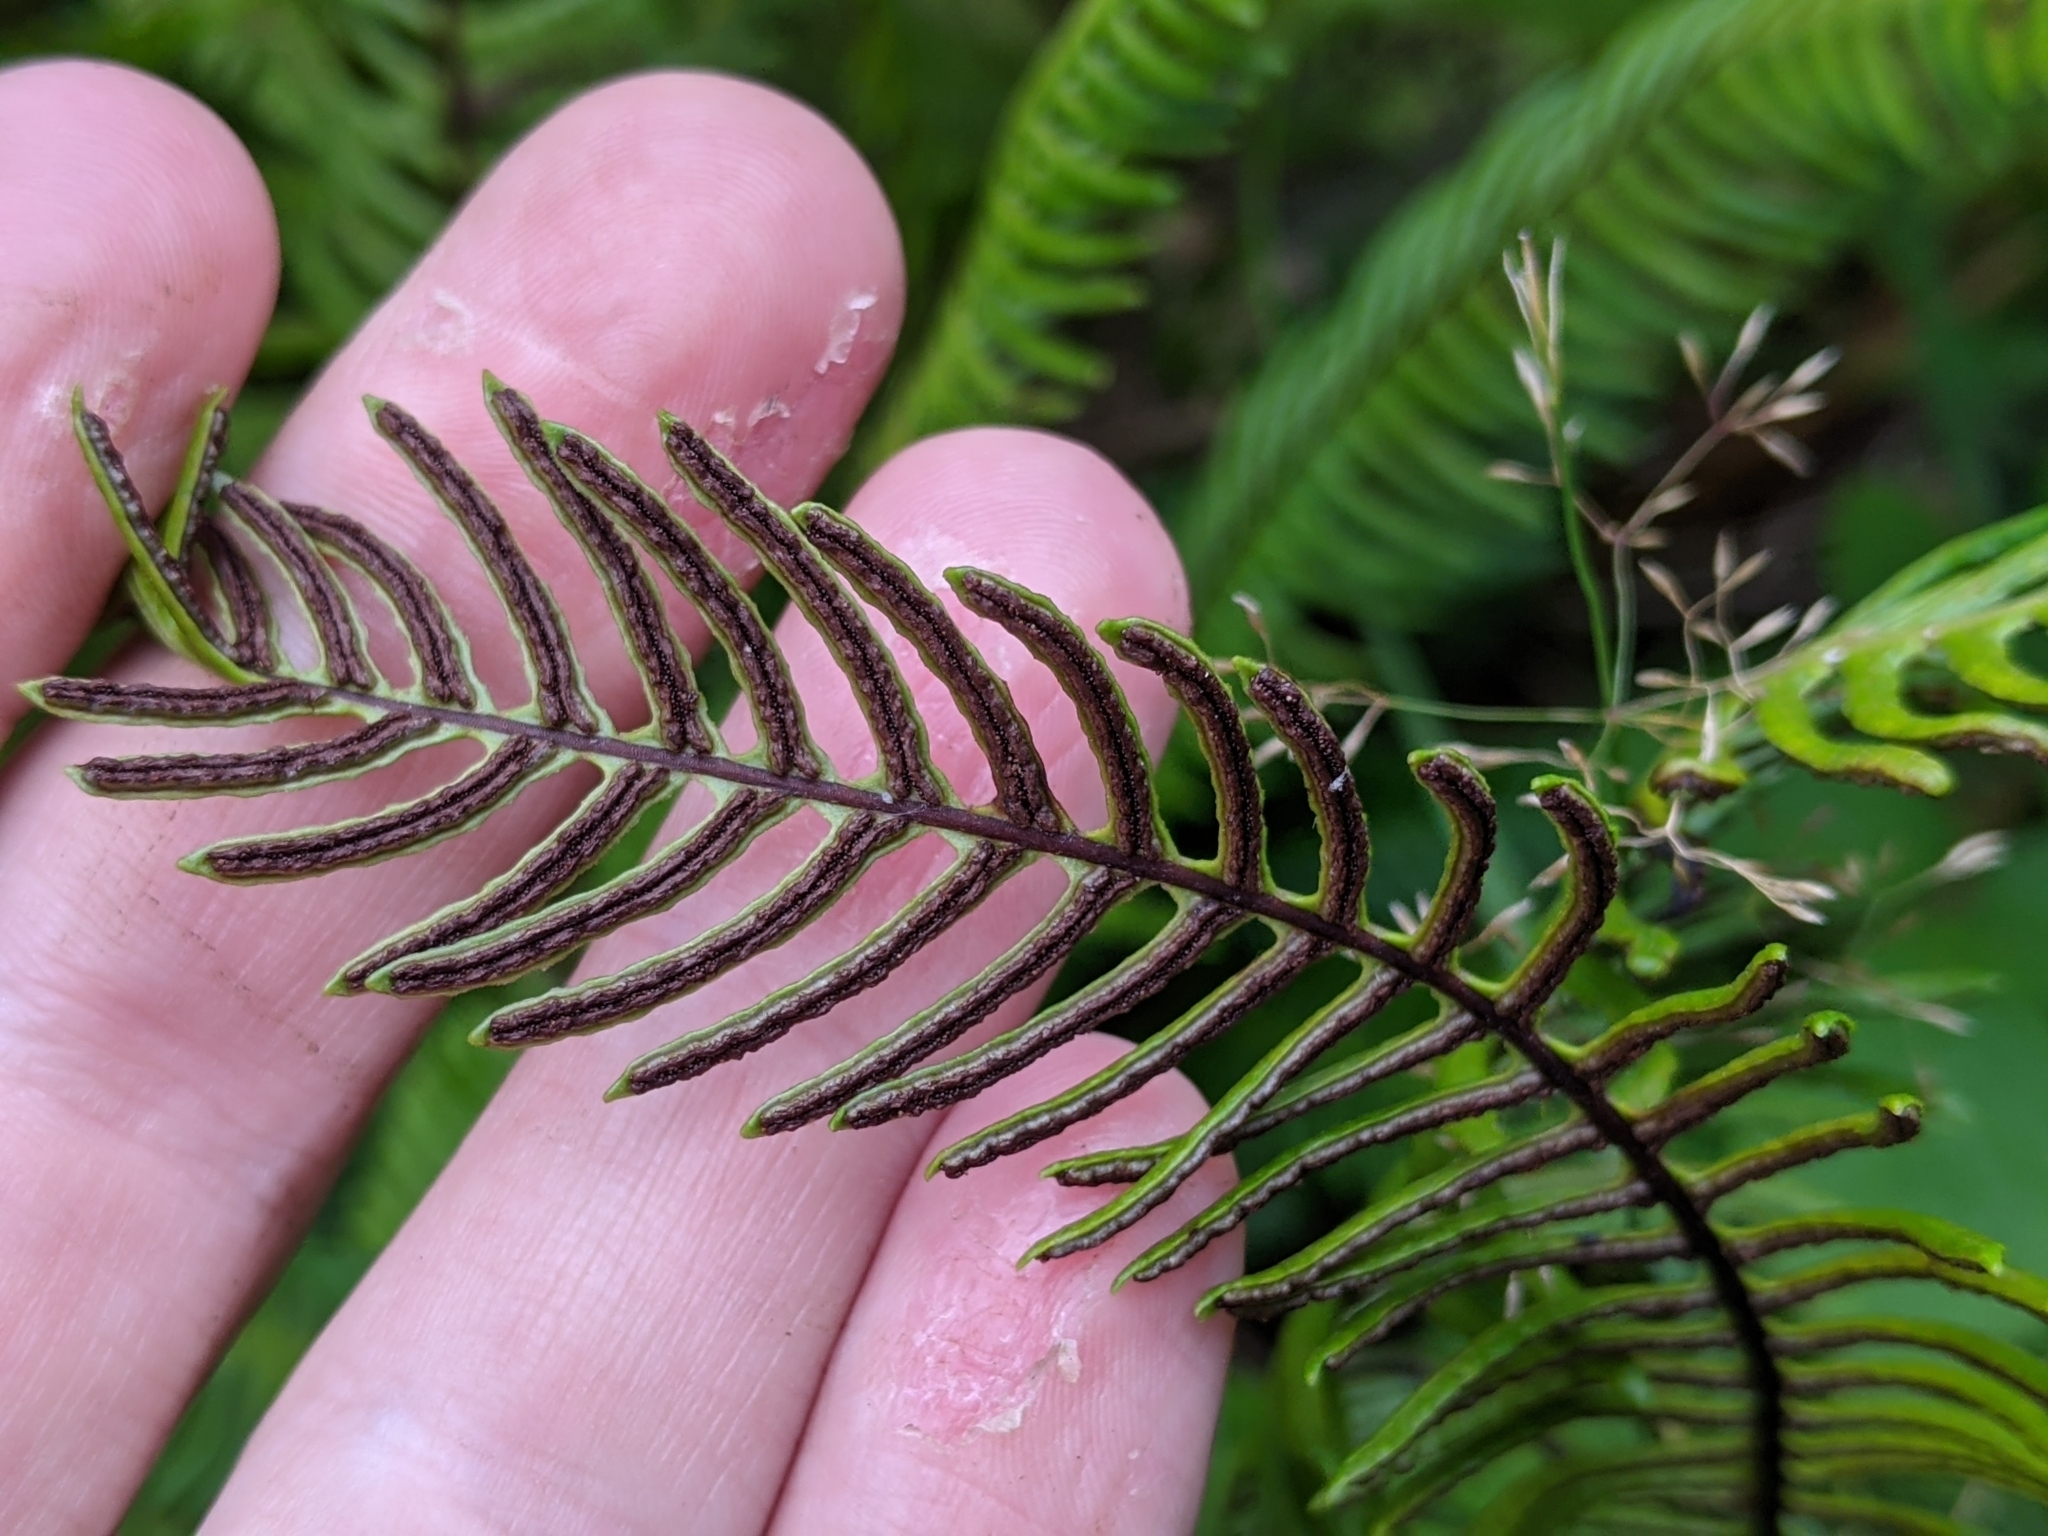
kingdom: Plantae
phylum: Tracheophyta
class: Polypodiopsida
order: Polypodiales
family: Blechnaceae
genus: Struthiopteris
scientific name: Struthiopteris spicant
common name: Deer fern
